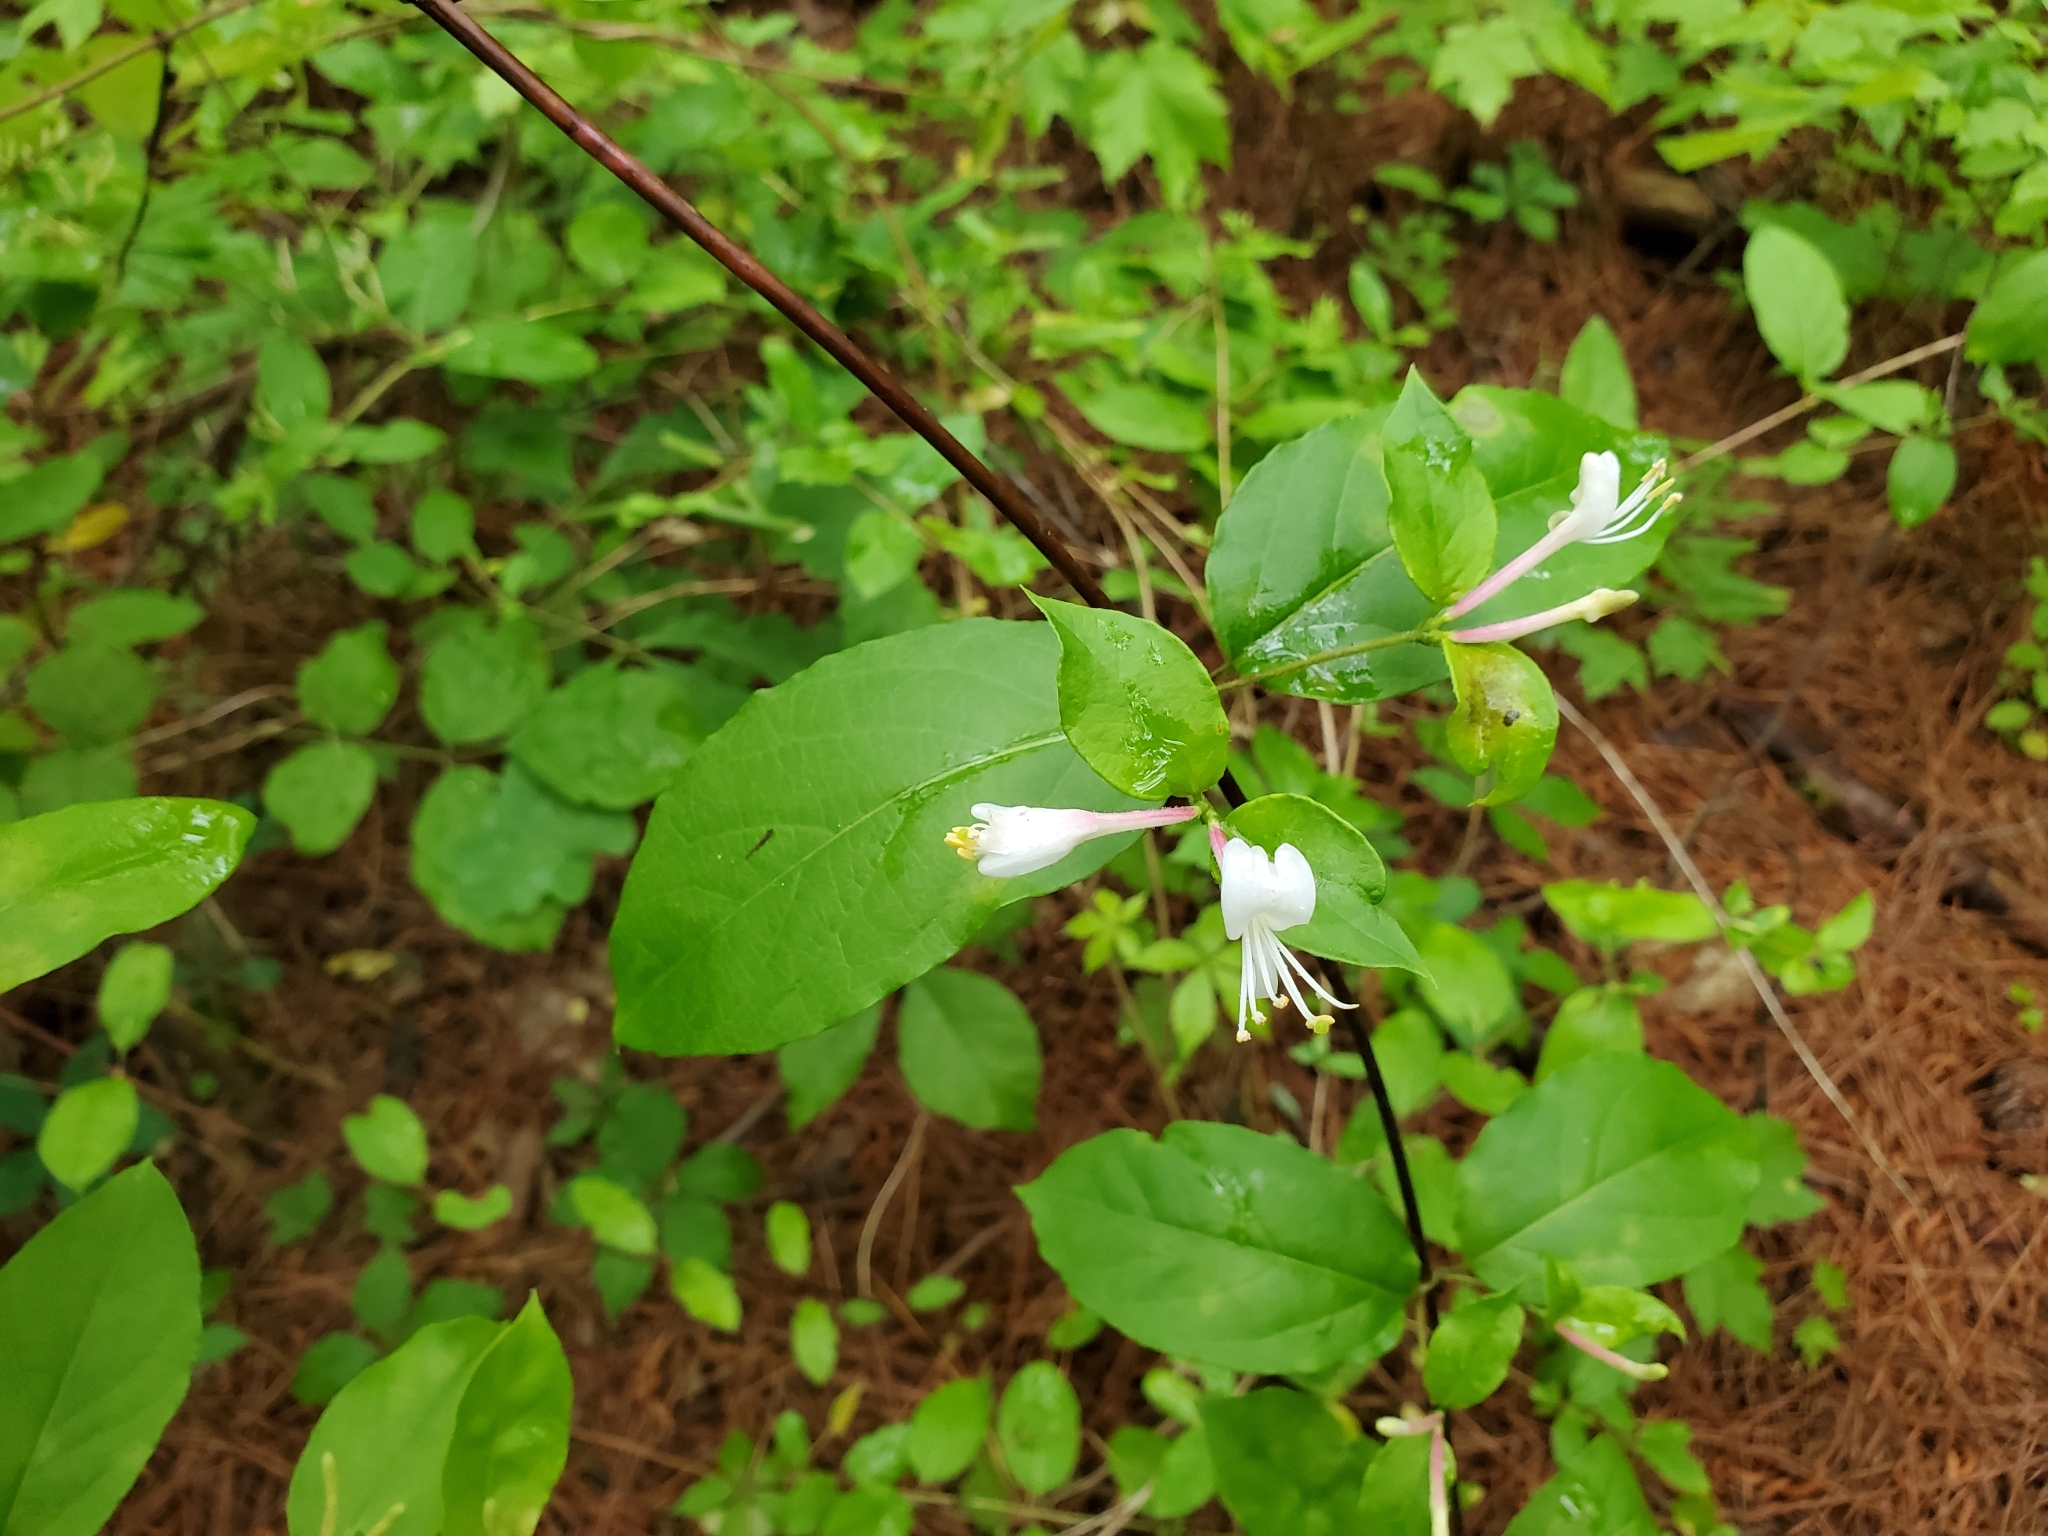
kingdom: Plantae
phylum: Tracheophyta
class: Magnoliopsida
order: Dipsacales
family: Caprifoliaceae
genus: Lonicera
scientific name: Lonicera japonica
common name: Japanese honeysuckle
